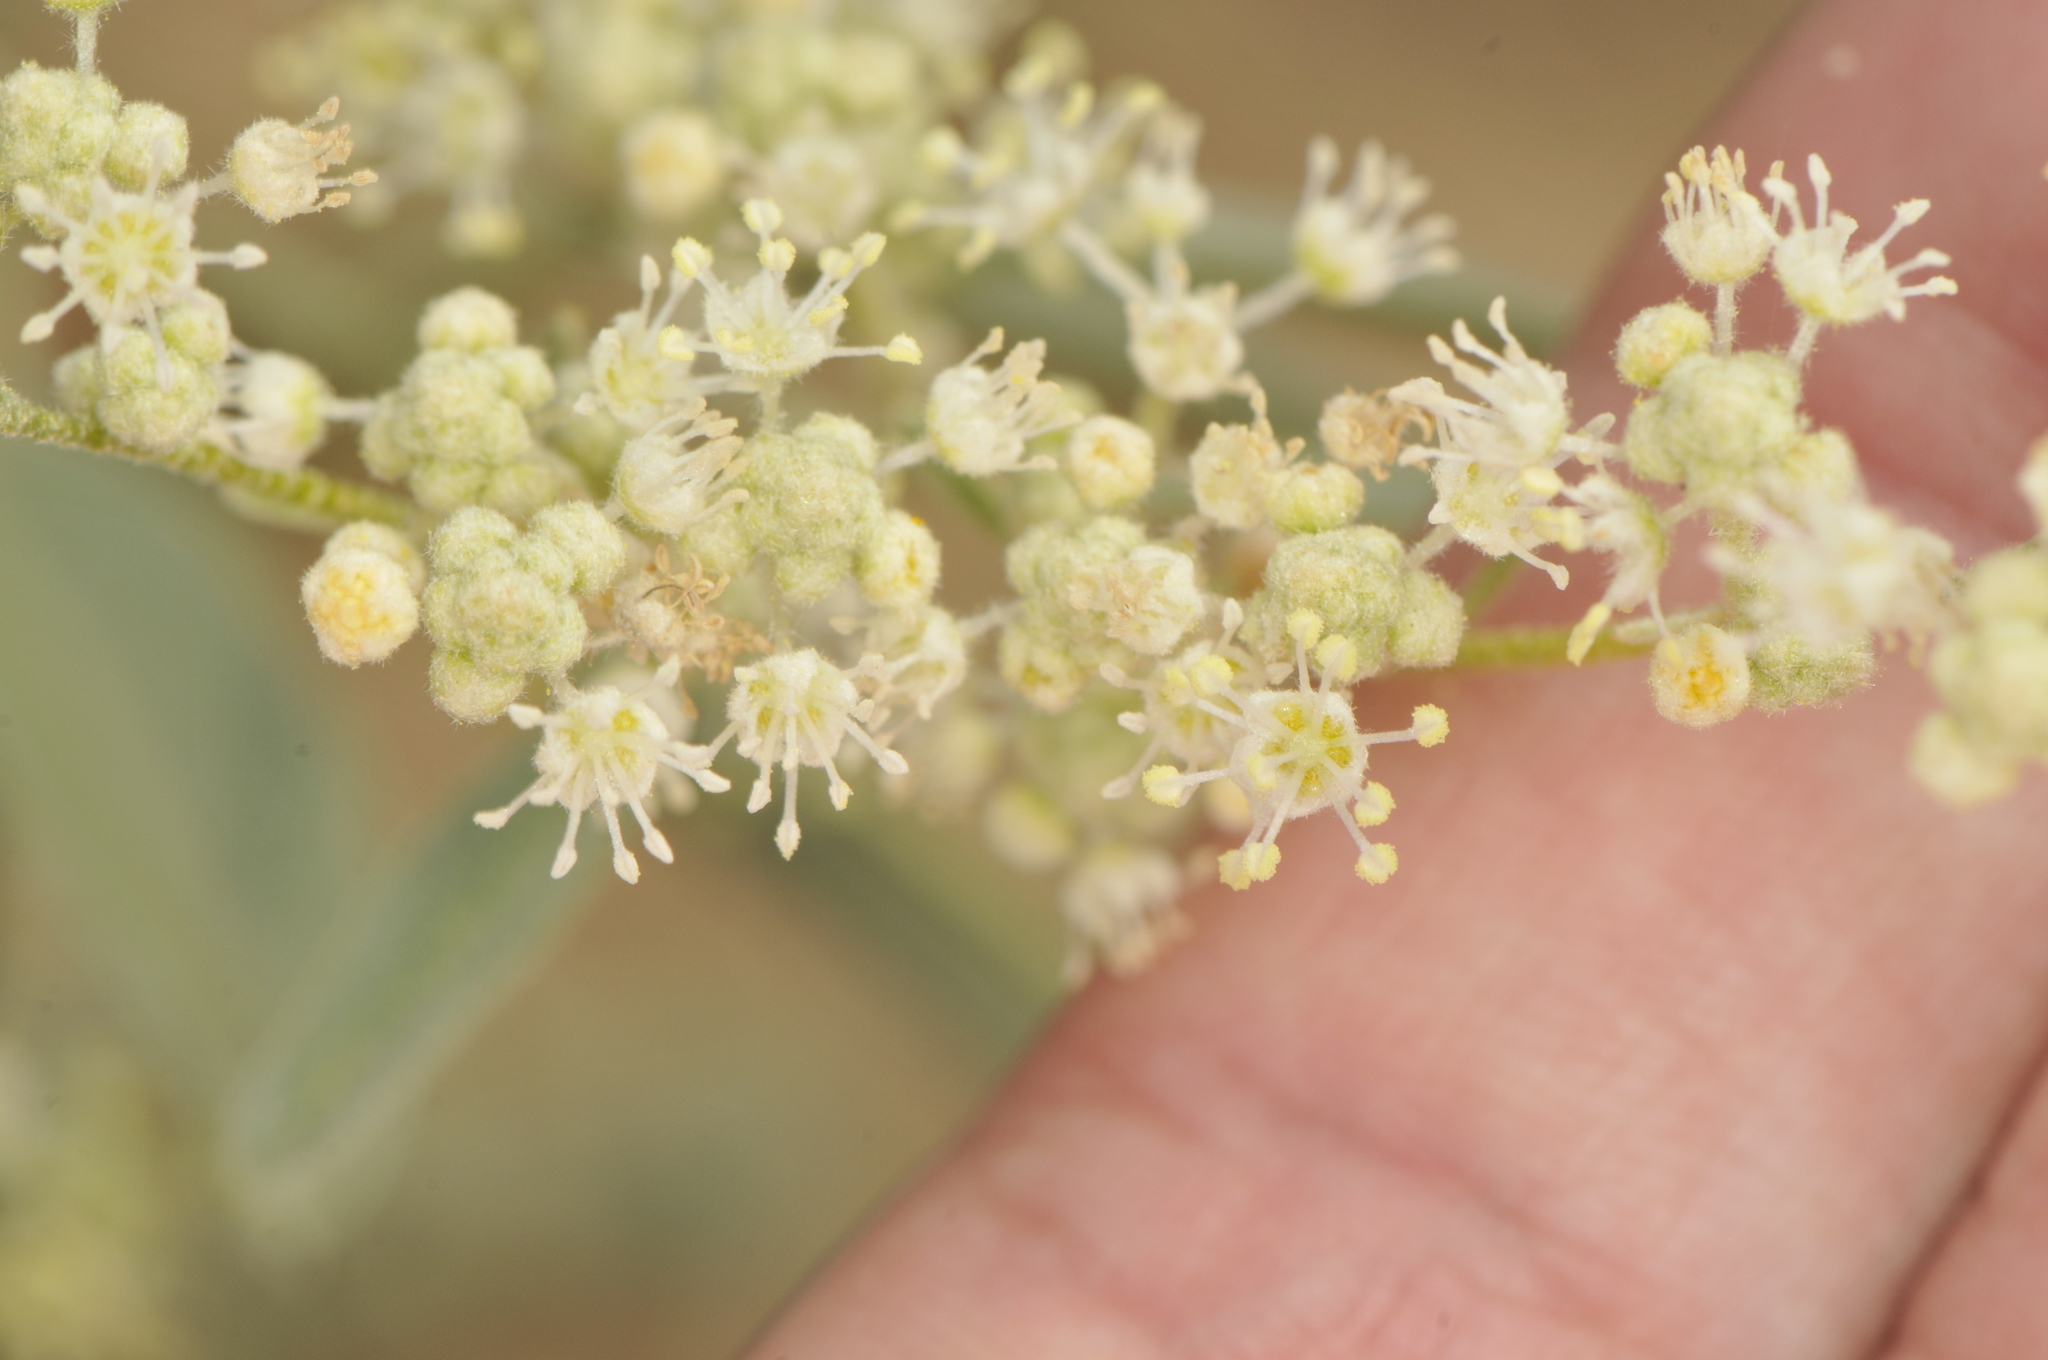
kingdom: Plantae
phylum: Tracheophyta
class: Magnoliopsida
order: Malpighiales
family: Euphorbiaceae
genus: Croton
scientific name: Croton texensis
